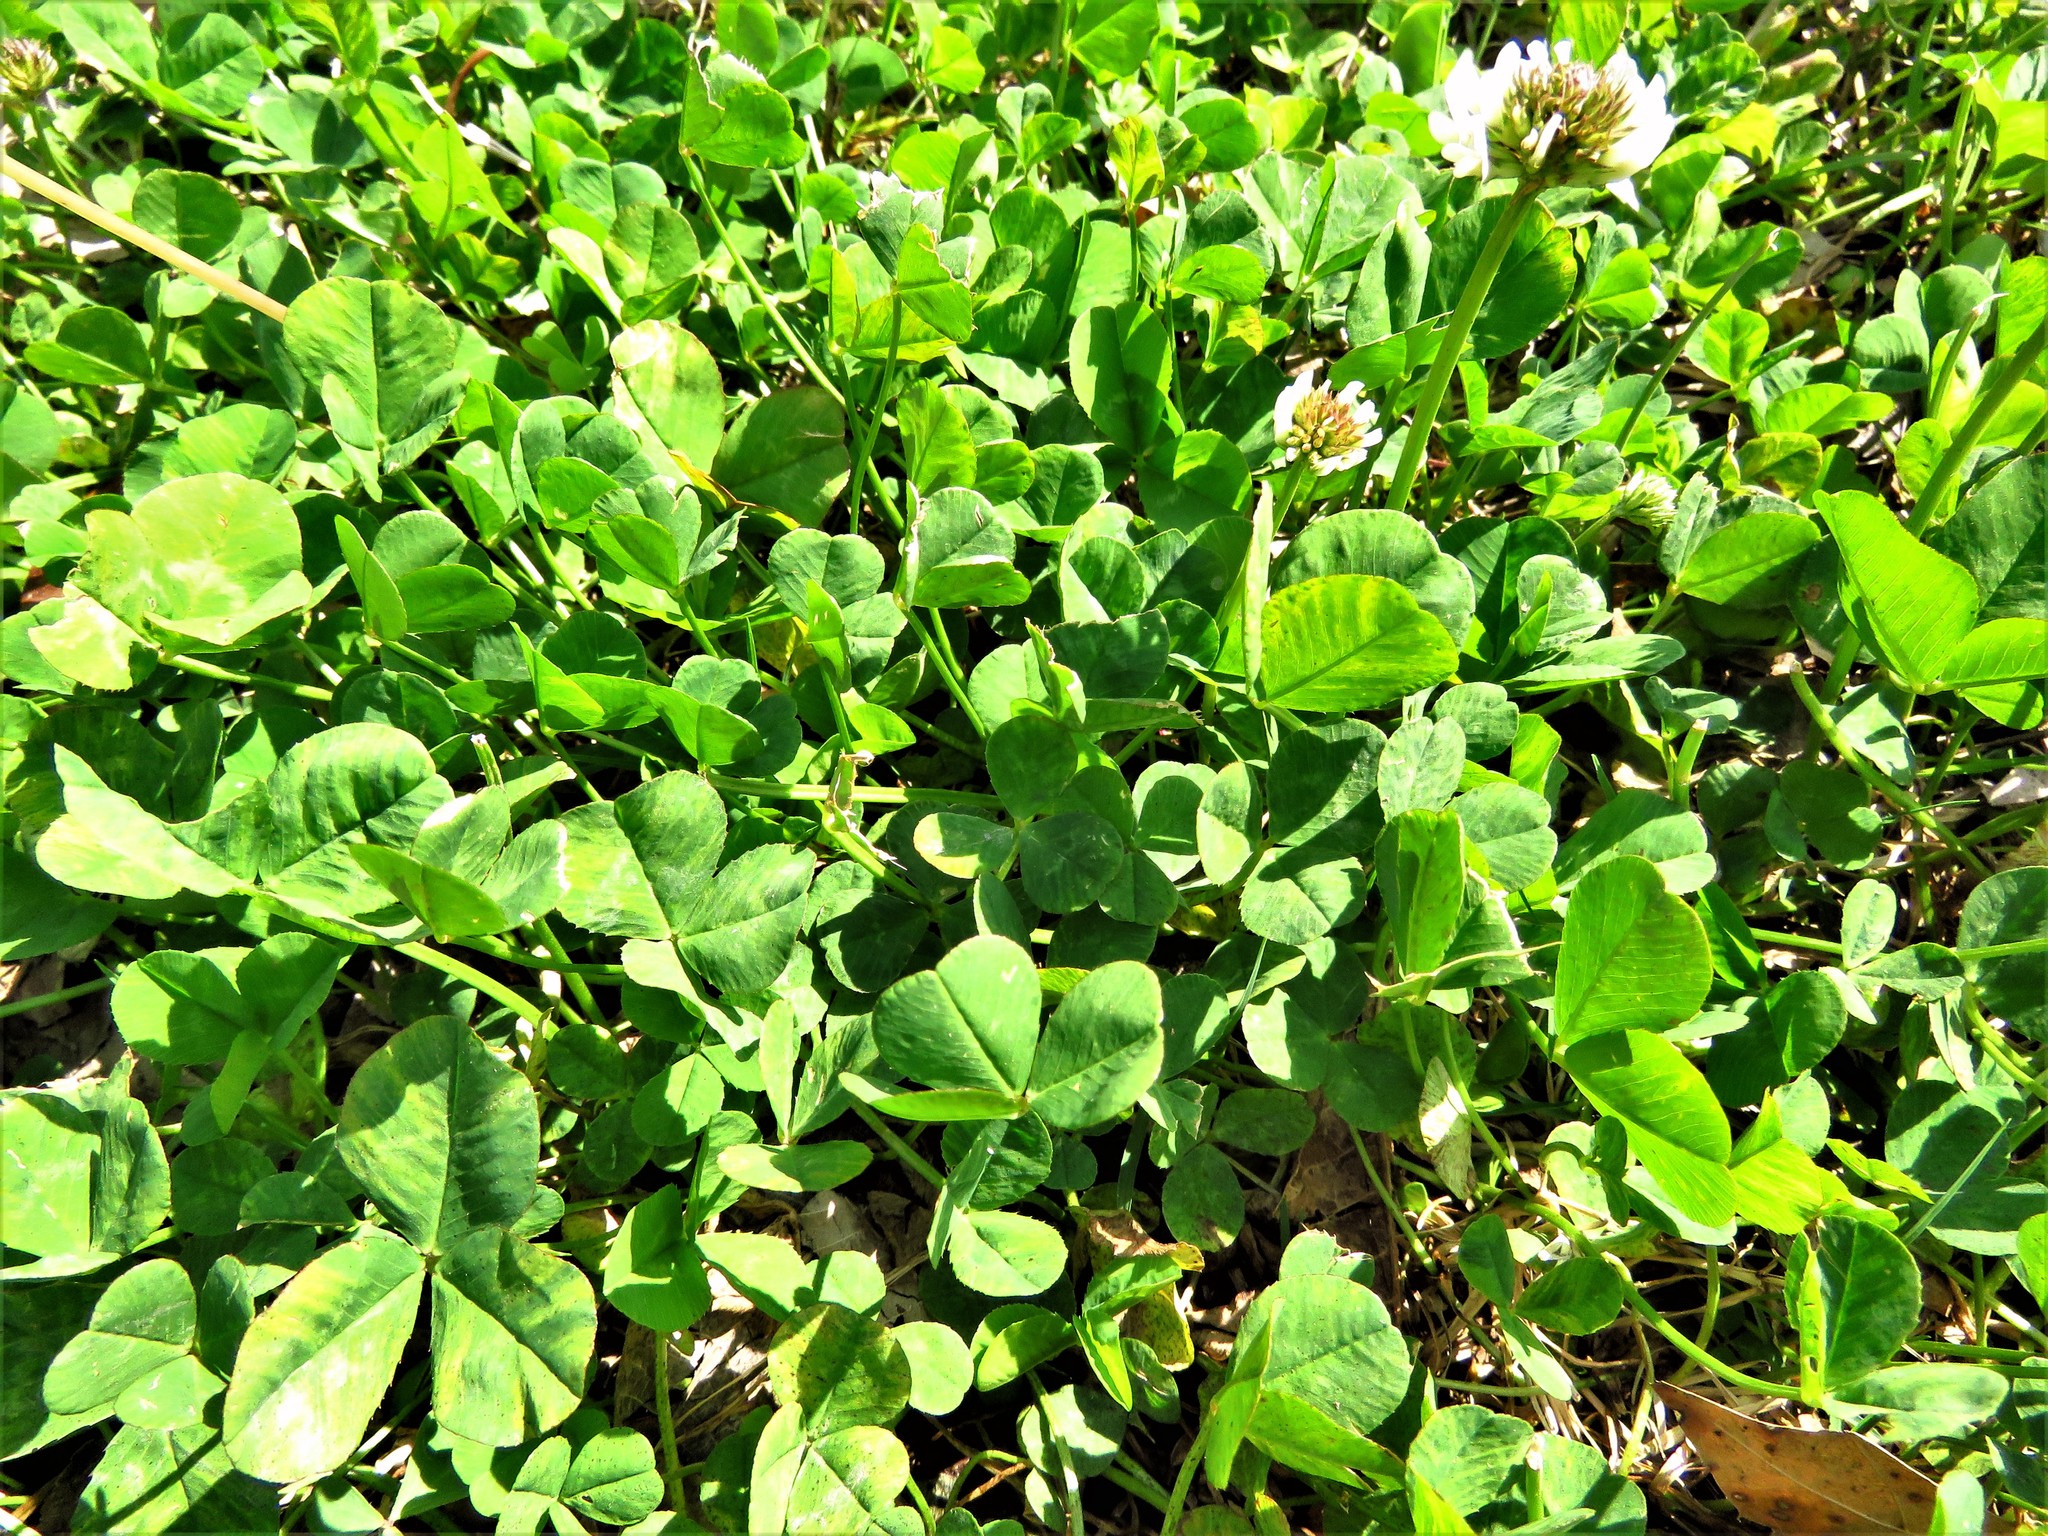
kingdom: Plantae
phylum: Tracheophyta
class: Magnoliopsida
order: Fabales
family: Fabaceae
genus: Trifolium
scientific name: Trifolium repens
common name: White clover
